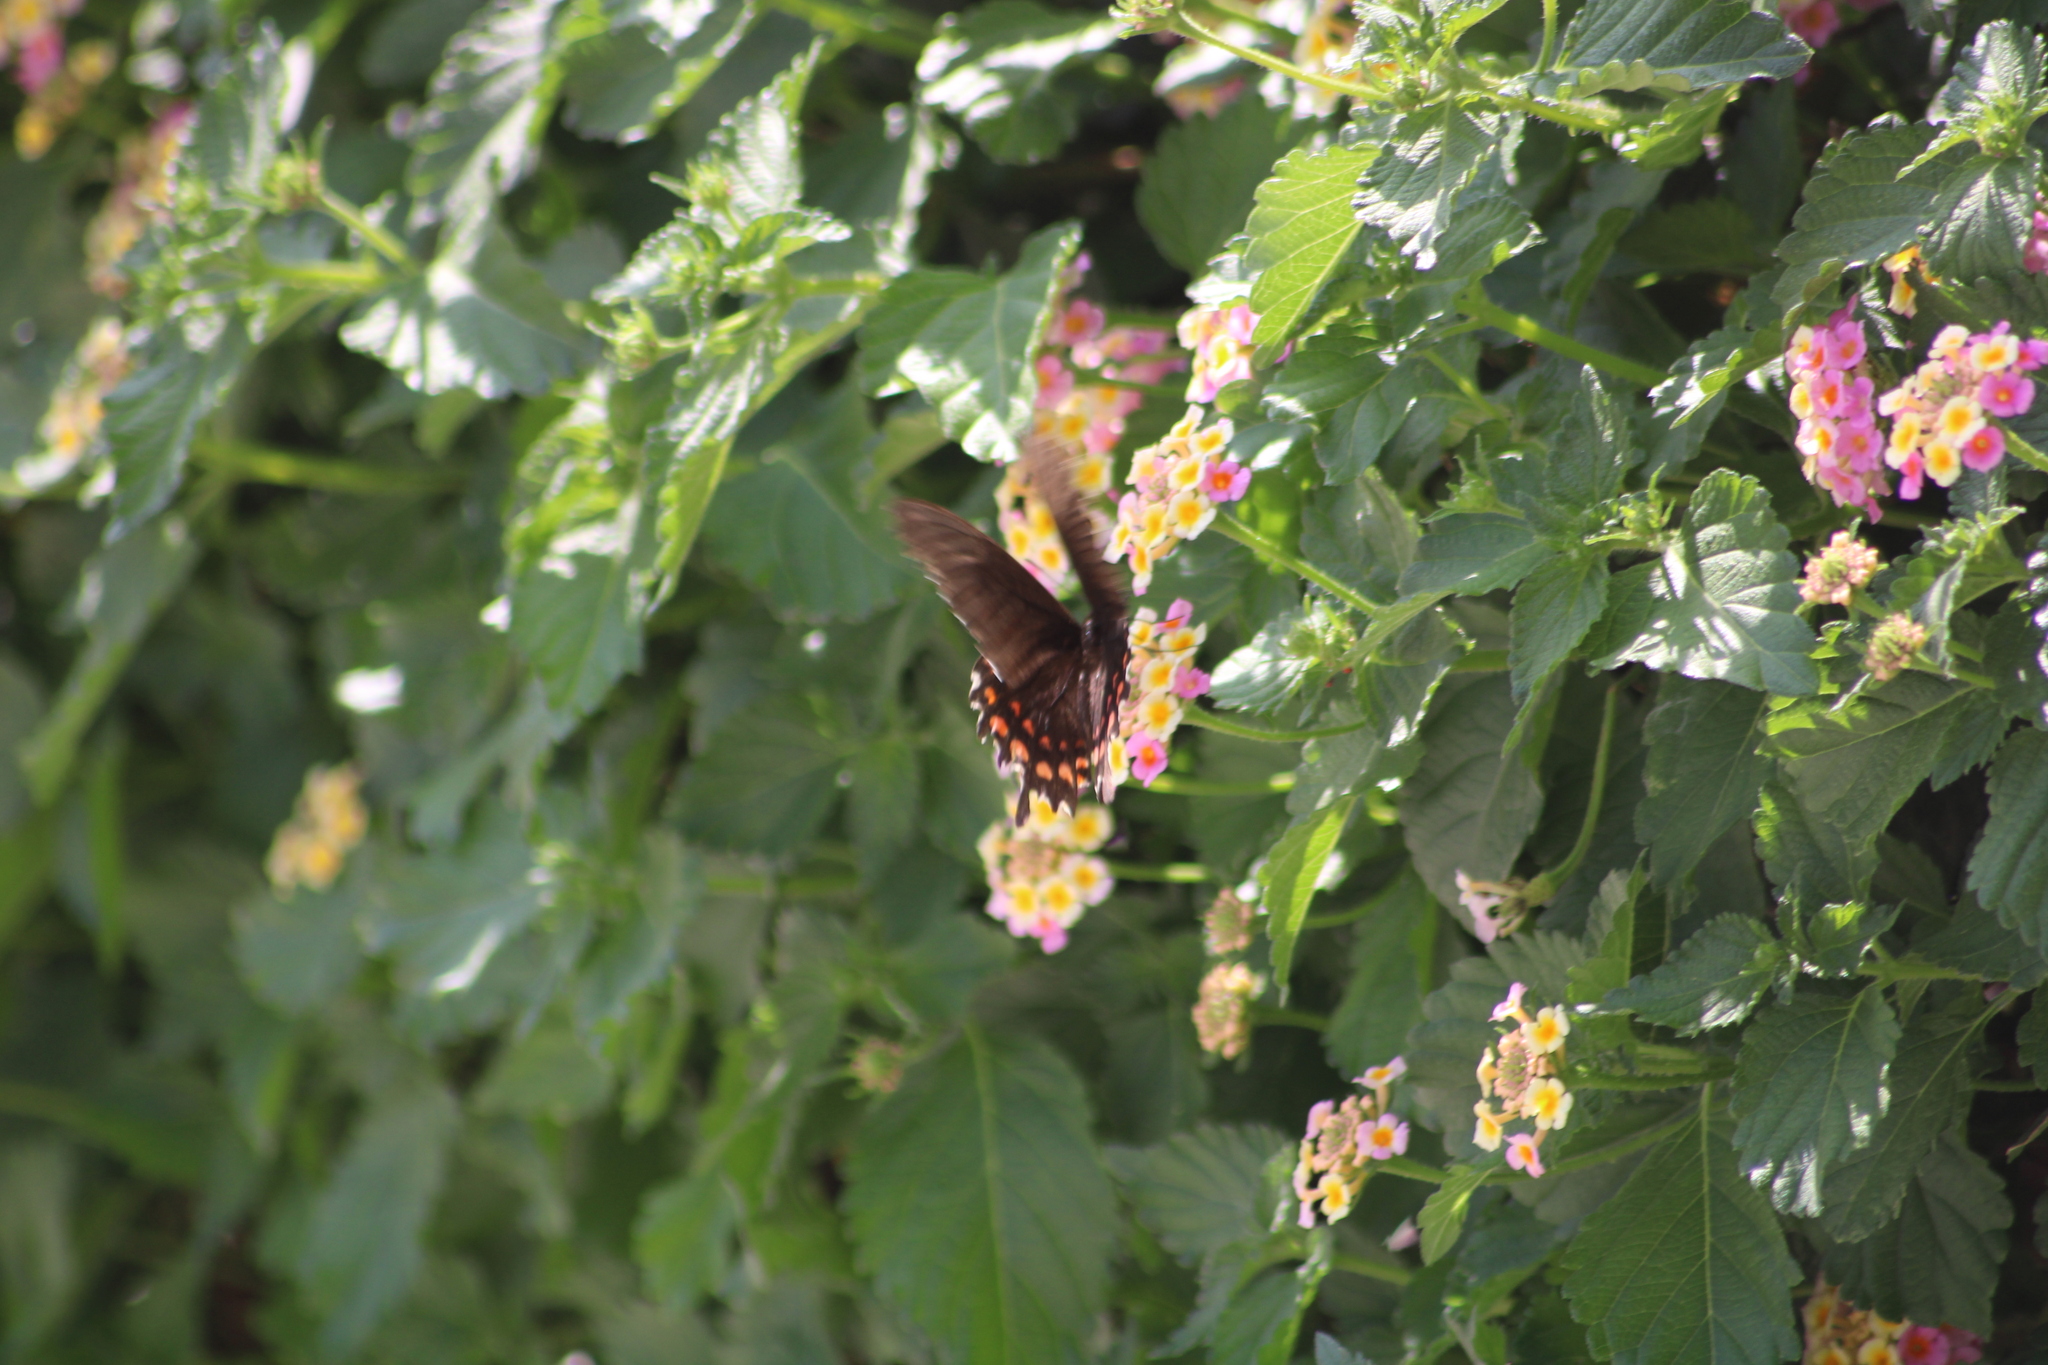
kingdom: Animalia
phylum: Arthropoda
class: Insecta
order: Lepidoptera
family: Papilionidae
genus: Heraclides
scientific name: Heraclides rogeri
